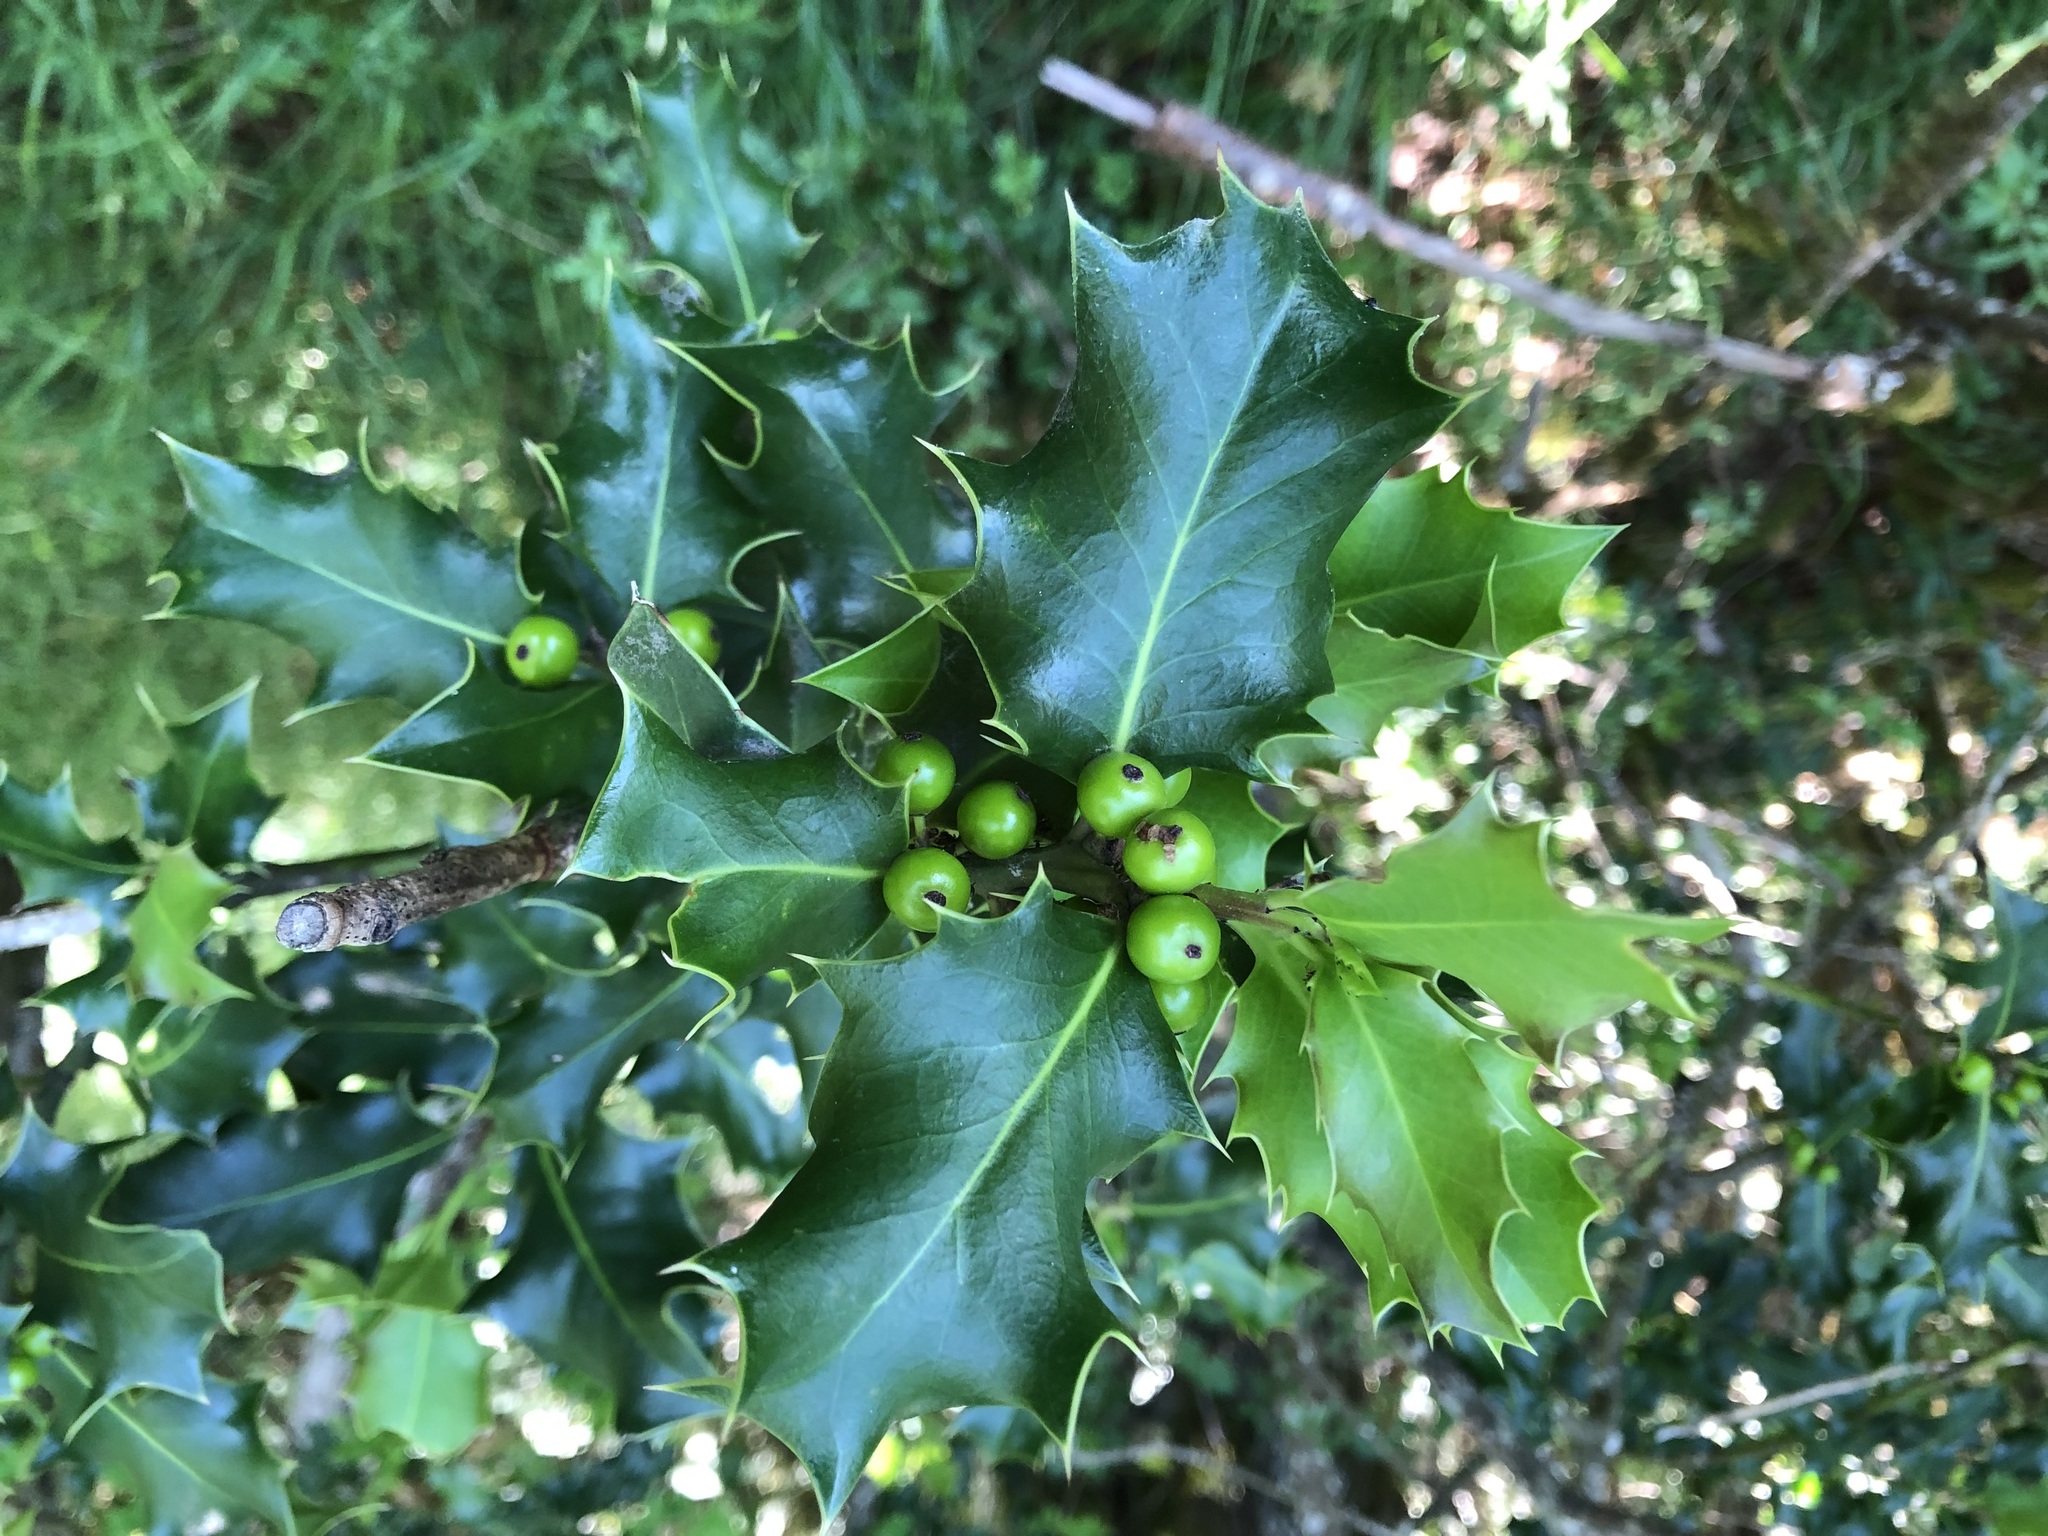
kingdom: Plantae
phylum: Tracheophyta
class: Magnoliopsida
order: Aquifoliales
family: Aquifoliaceae
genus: Ilex
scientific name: Ilex aquifolium
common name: English holly
